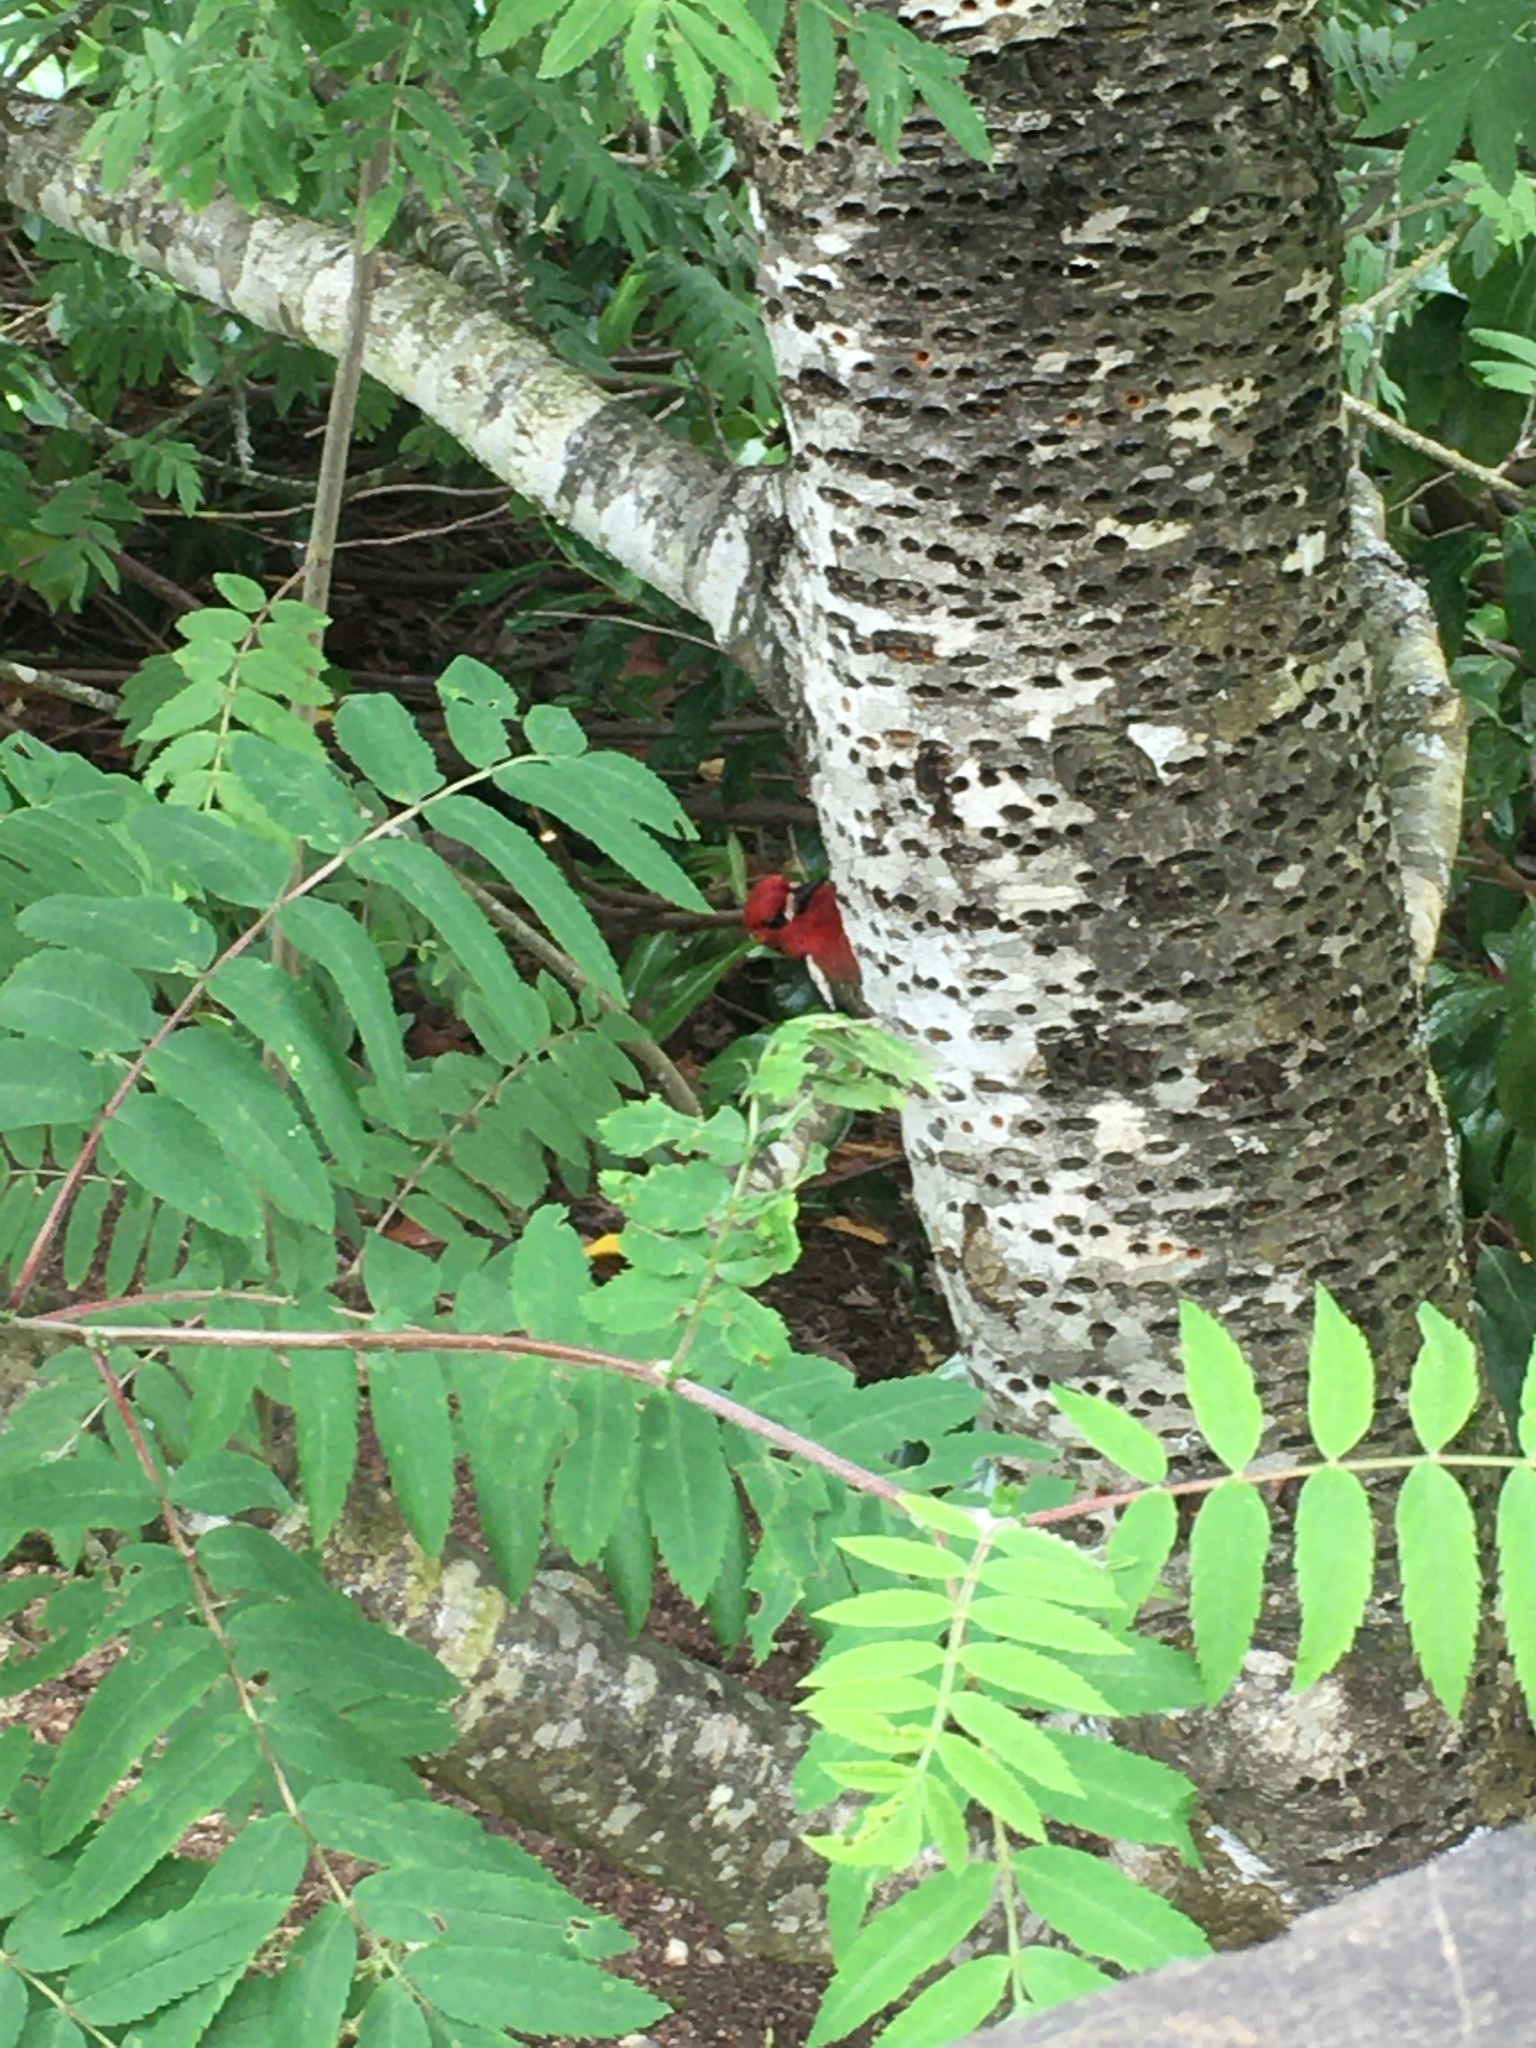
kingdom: Animalia
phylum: Chordata
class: Aves
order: Piciformes
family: Picidae
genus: Sphyrapicus
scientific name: Sphyrapicus ruber
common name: Red-breasted sapsucker
